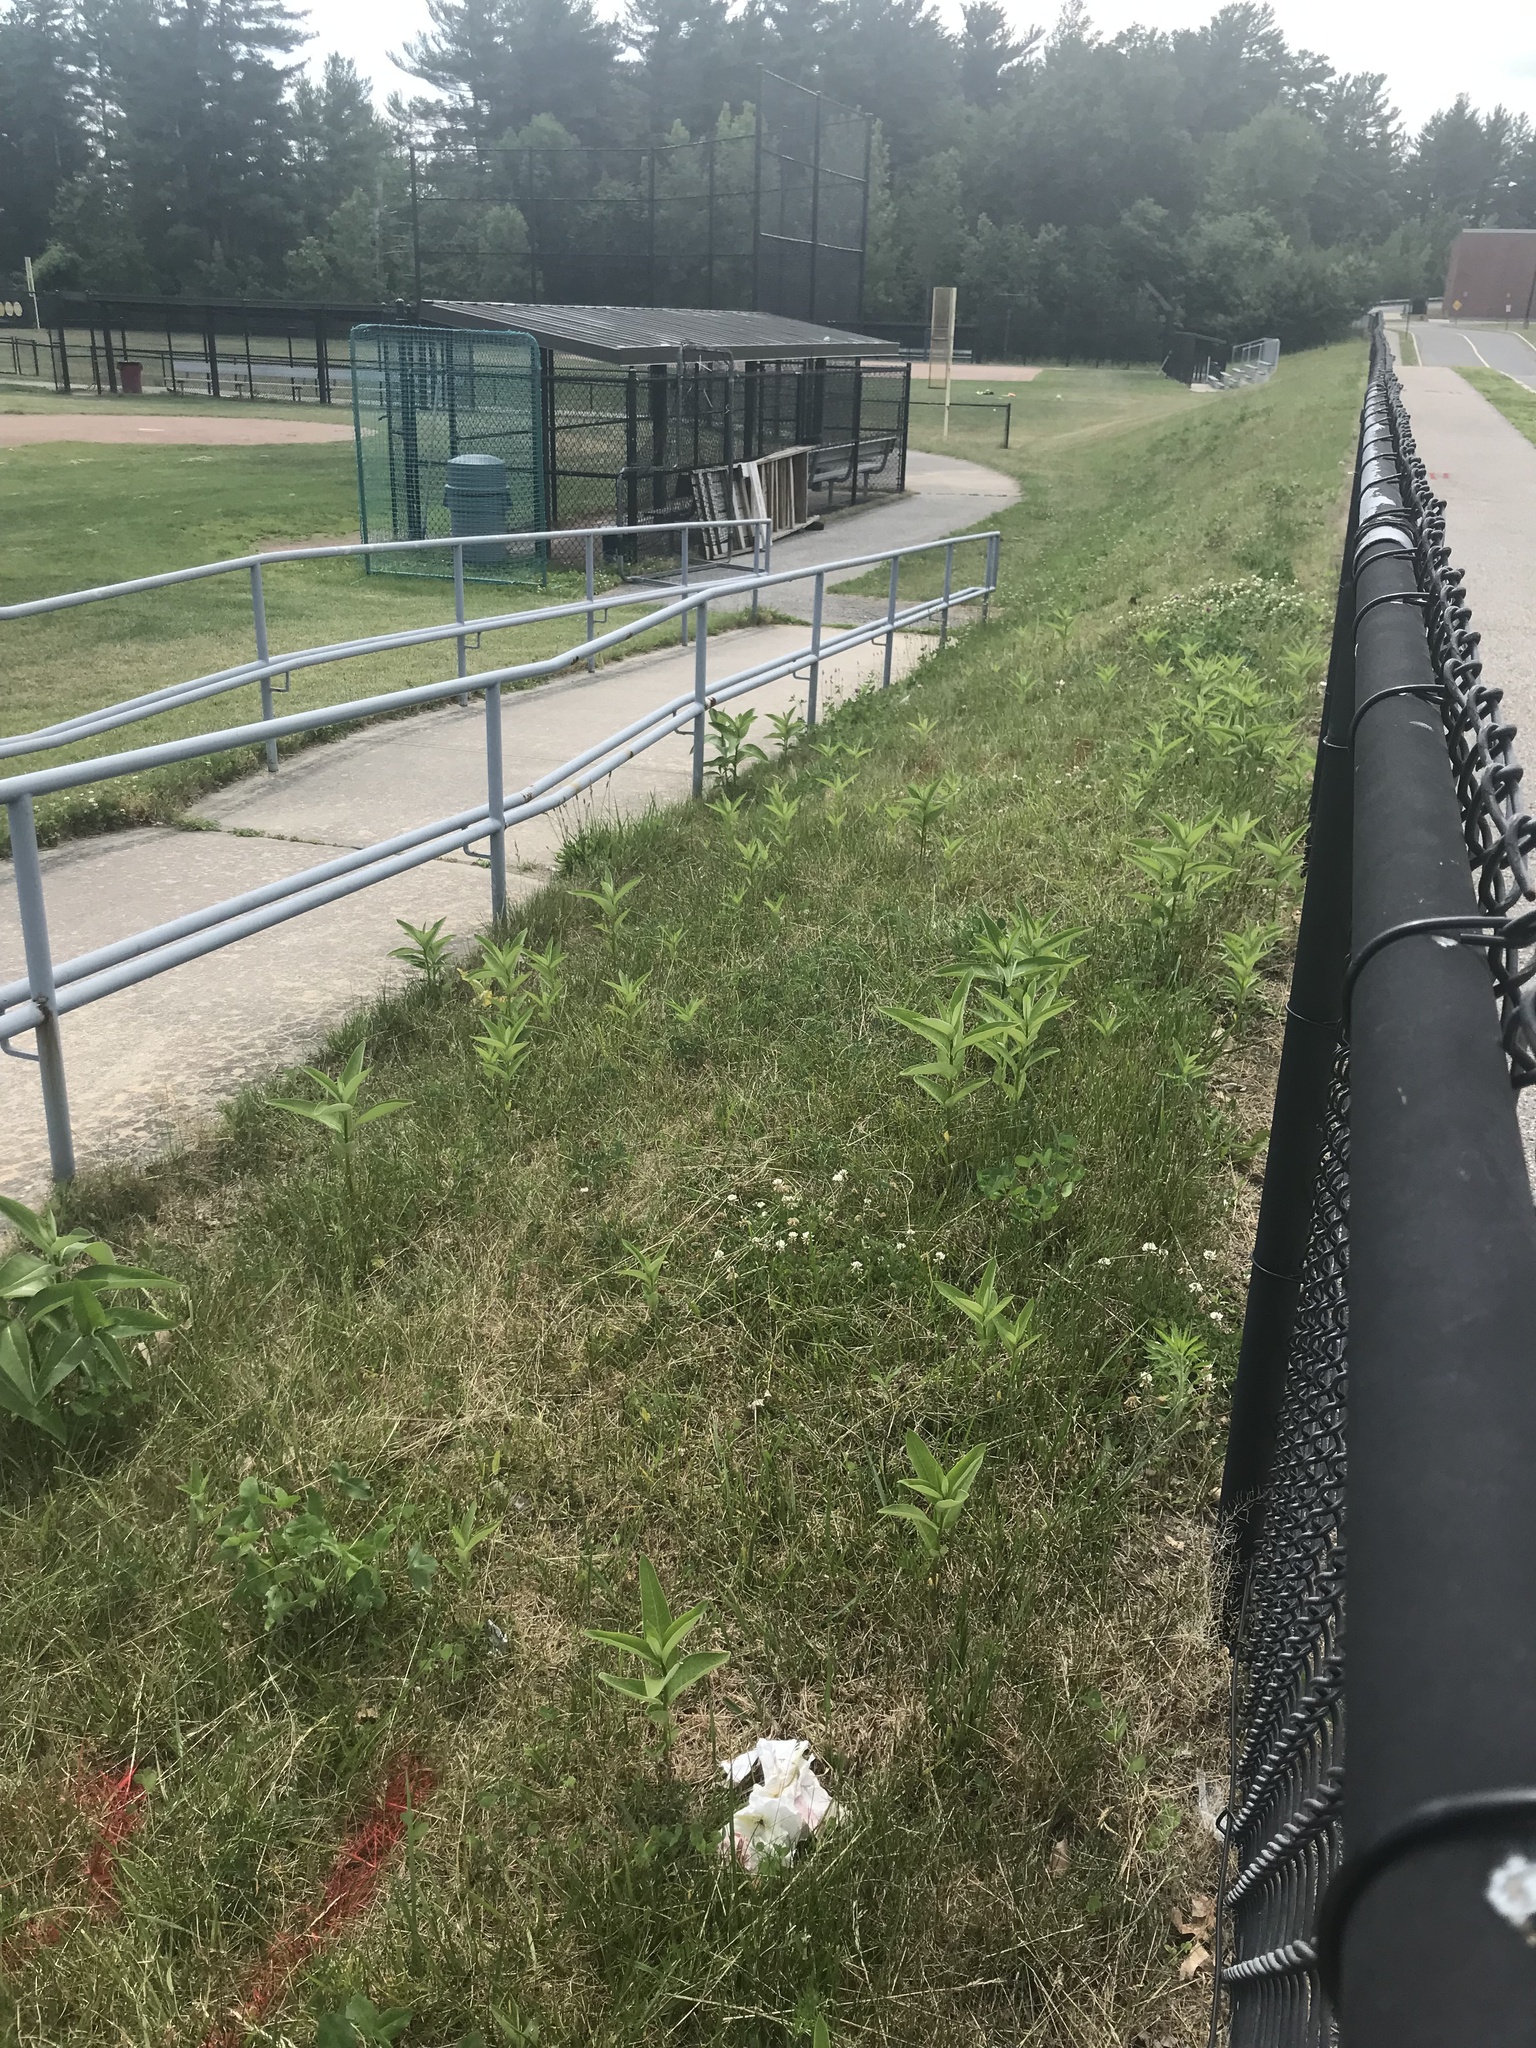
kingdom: Plantae
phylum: Tracheophyta
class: Magnoliopsida
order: Gentianales
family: Apocynaceae
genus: Asclepias
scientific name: Asclepias syriaca
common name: Common milkweed
